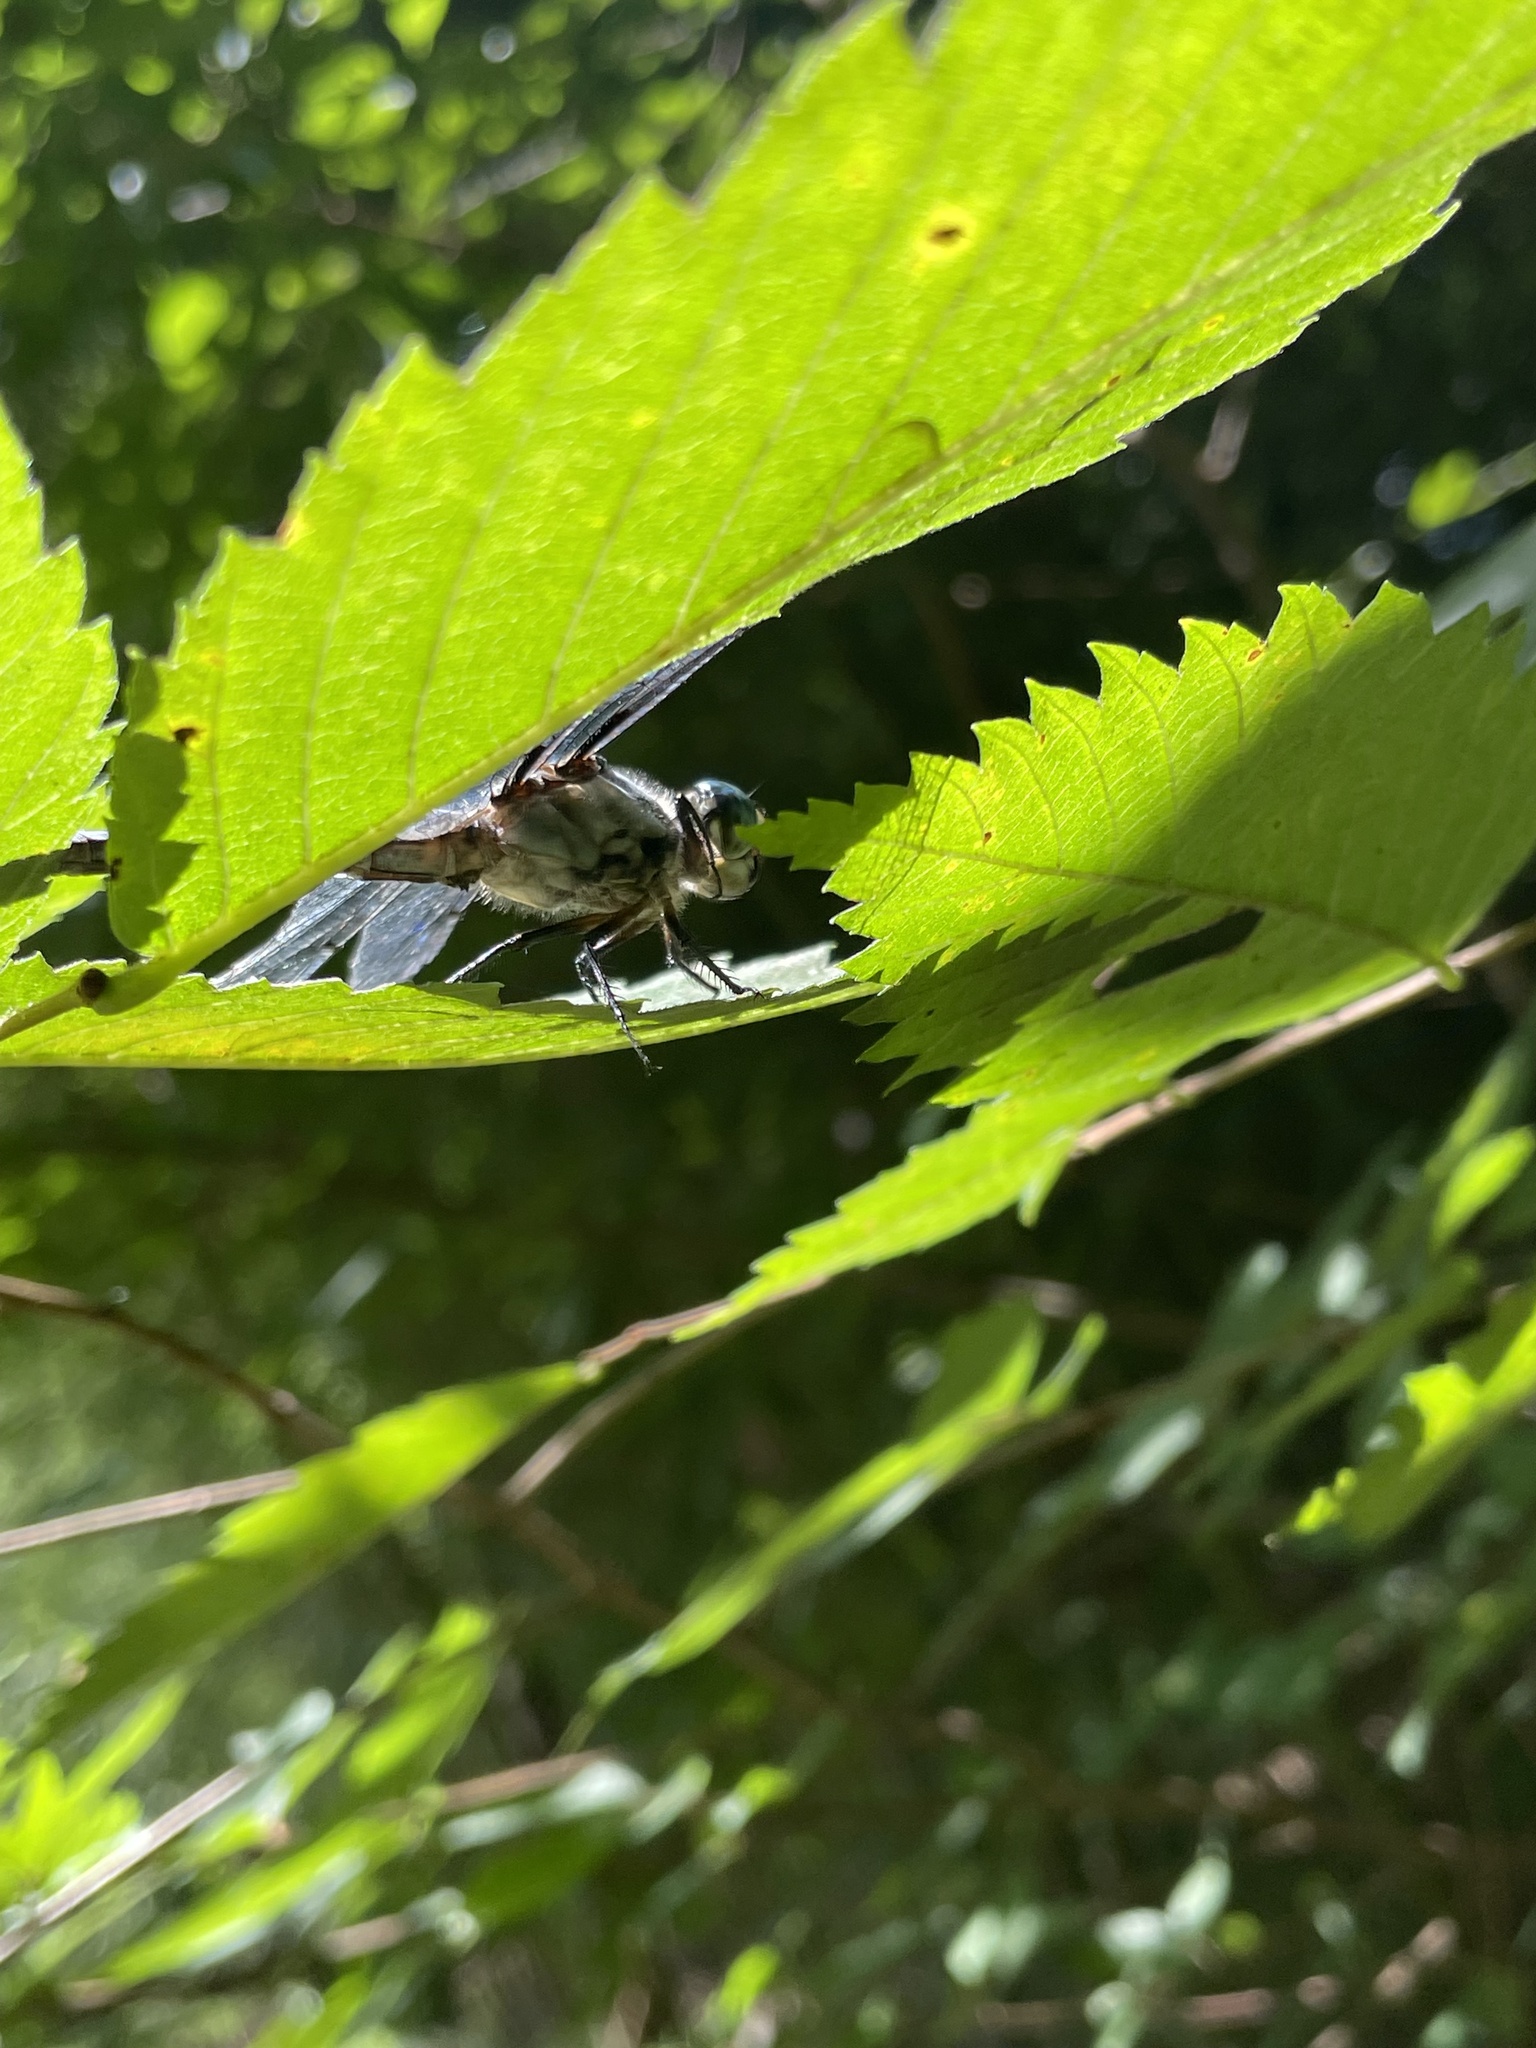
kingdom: Animalia
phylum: Arthropoda
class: Insecta
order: Odonata
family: Libellulidae
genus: Libellula
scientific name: Libellula vibrans
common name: Great blue skimmer
